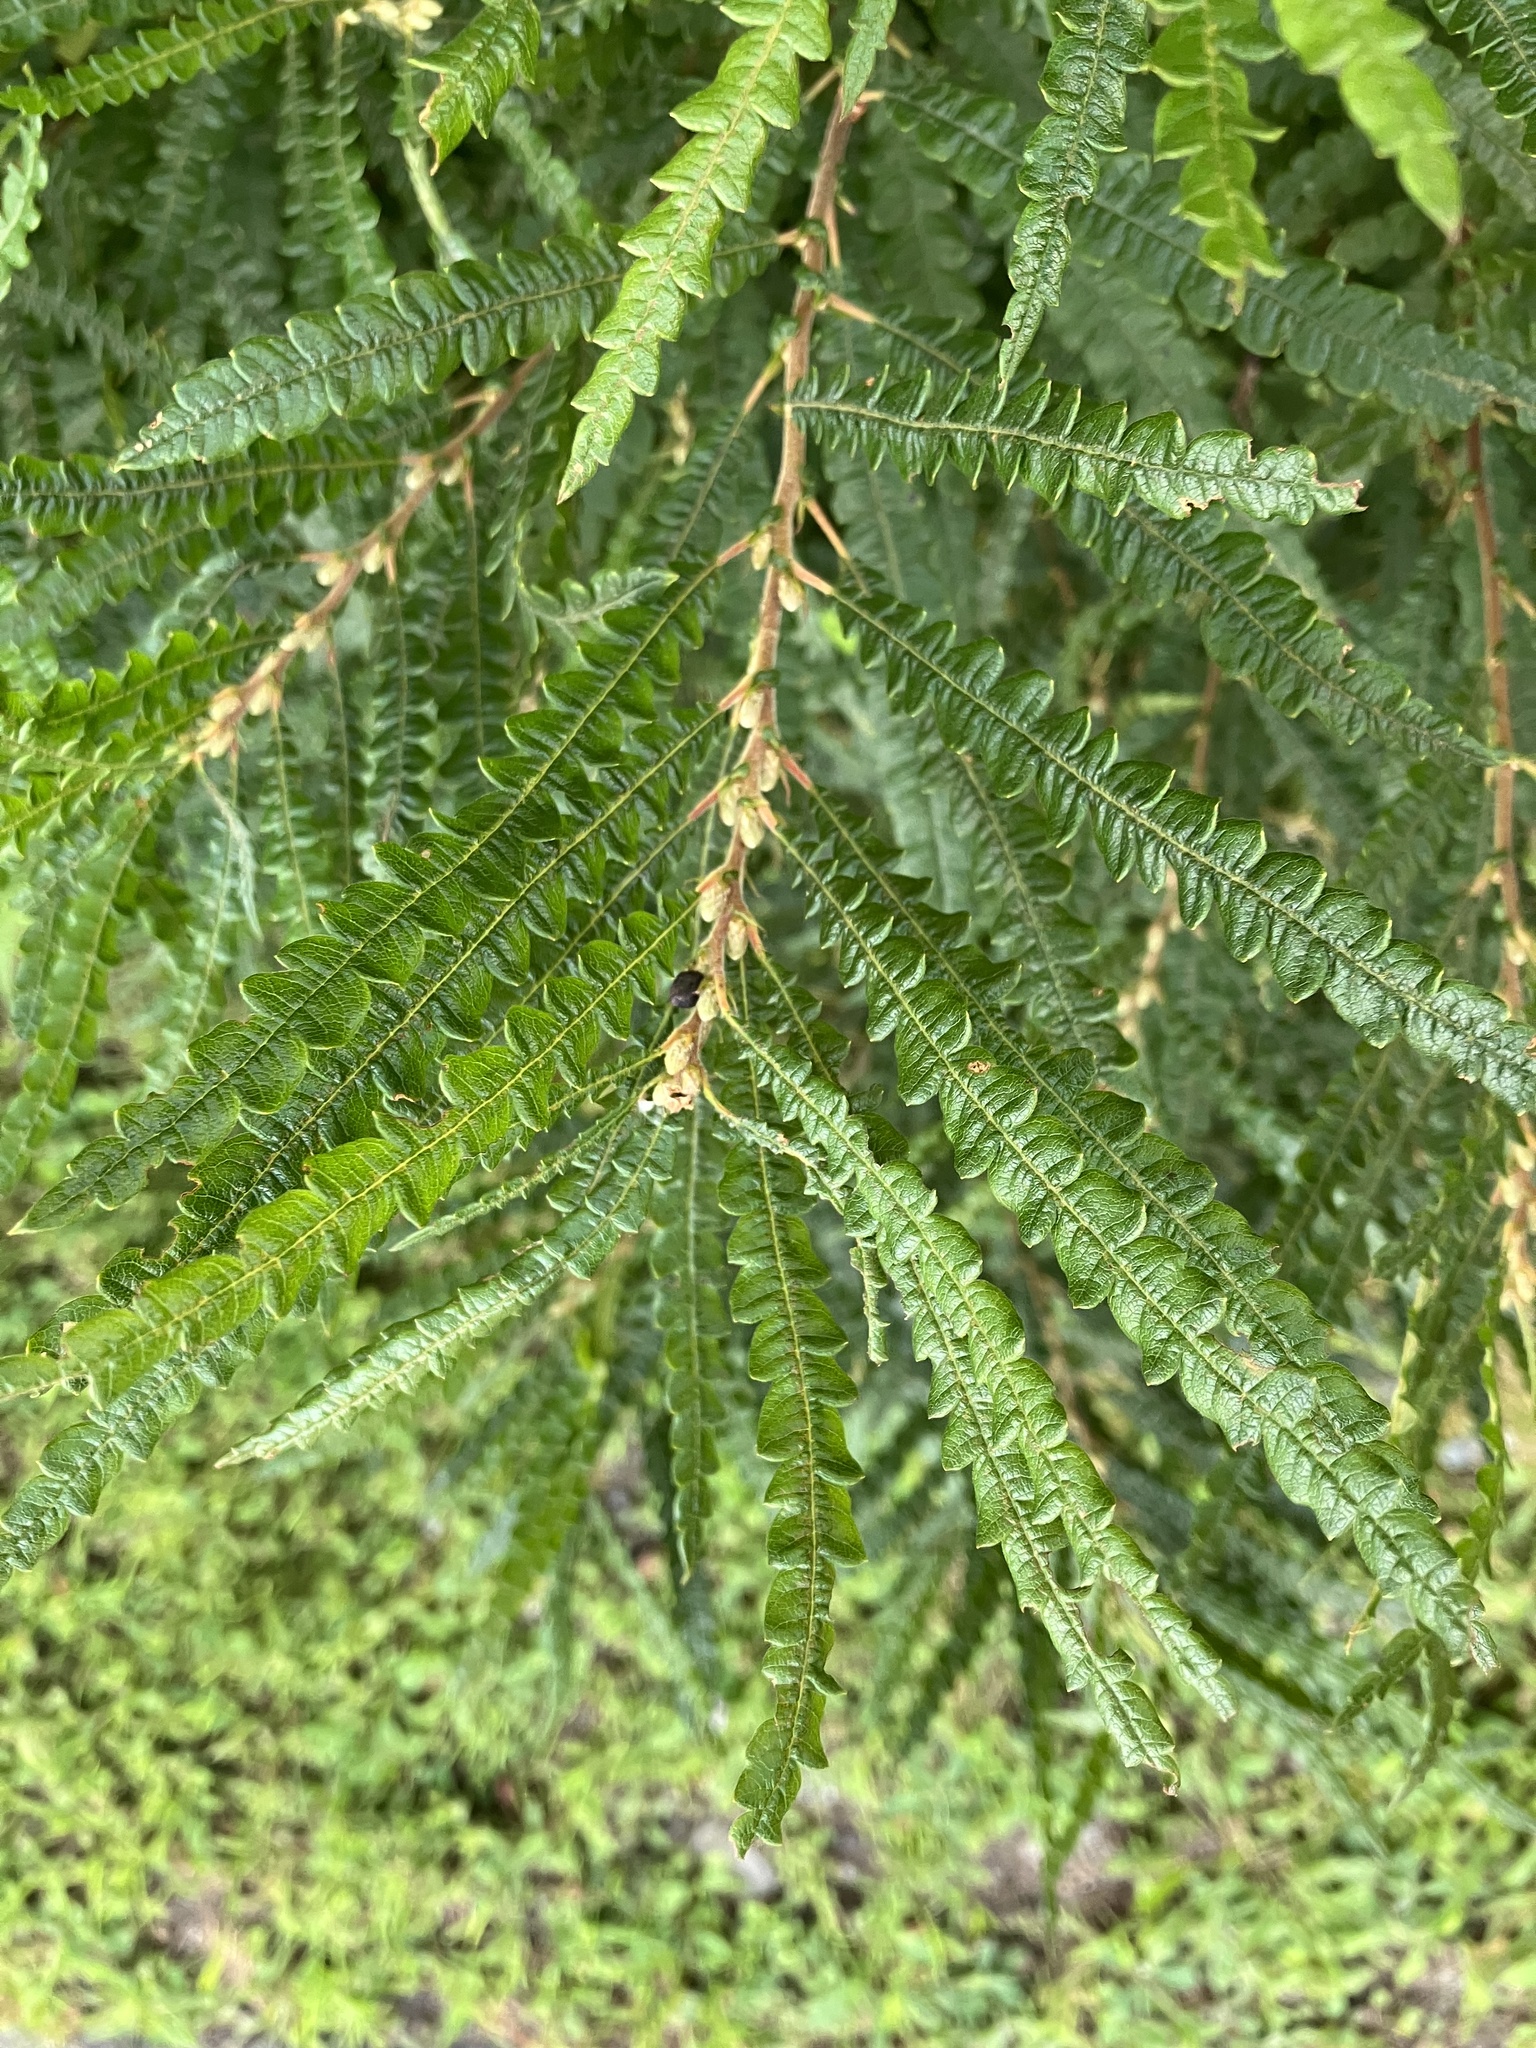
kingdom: Plantae
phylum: Tracheophyta
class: Magnoliopsida
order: Fagales
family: Myricaceae
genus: Comptonia
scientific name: Comptonia peregrina
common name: Sweet-fern
